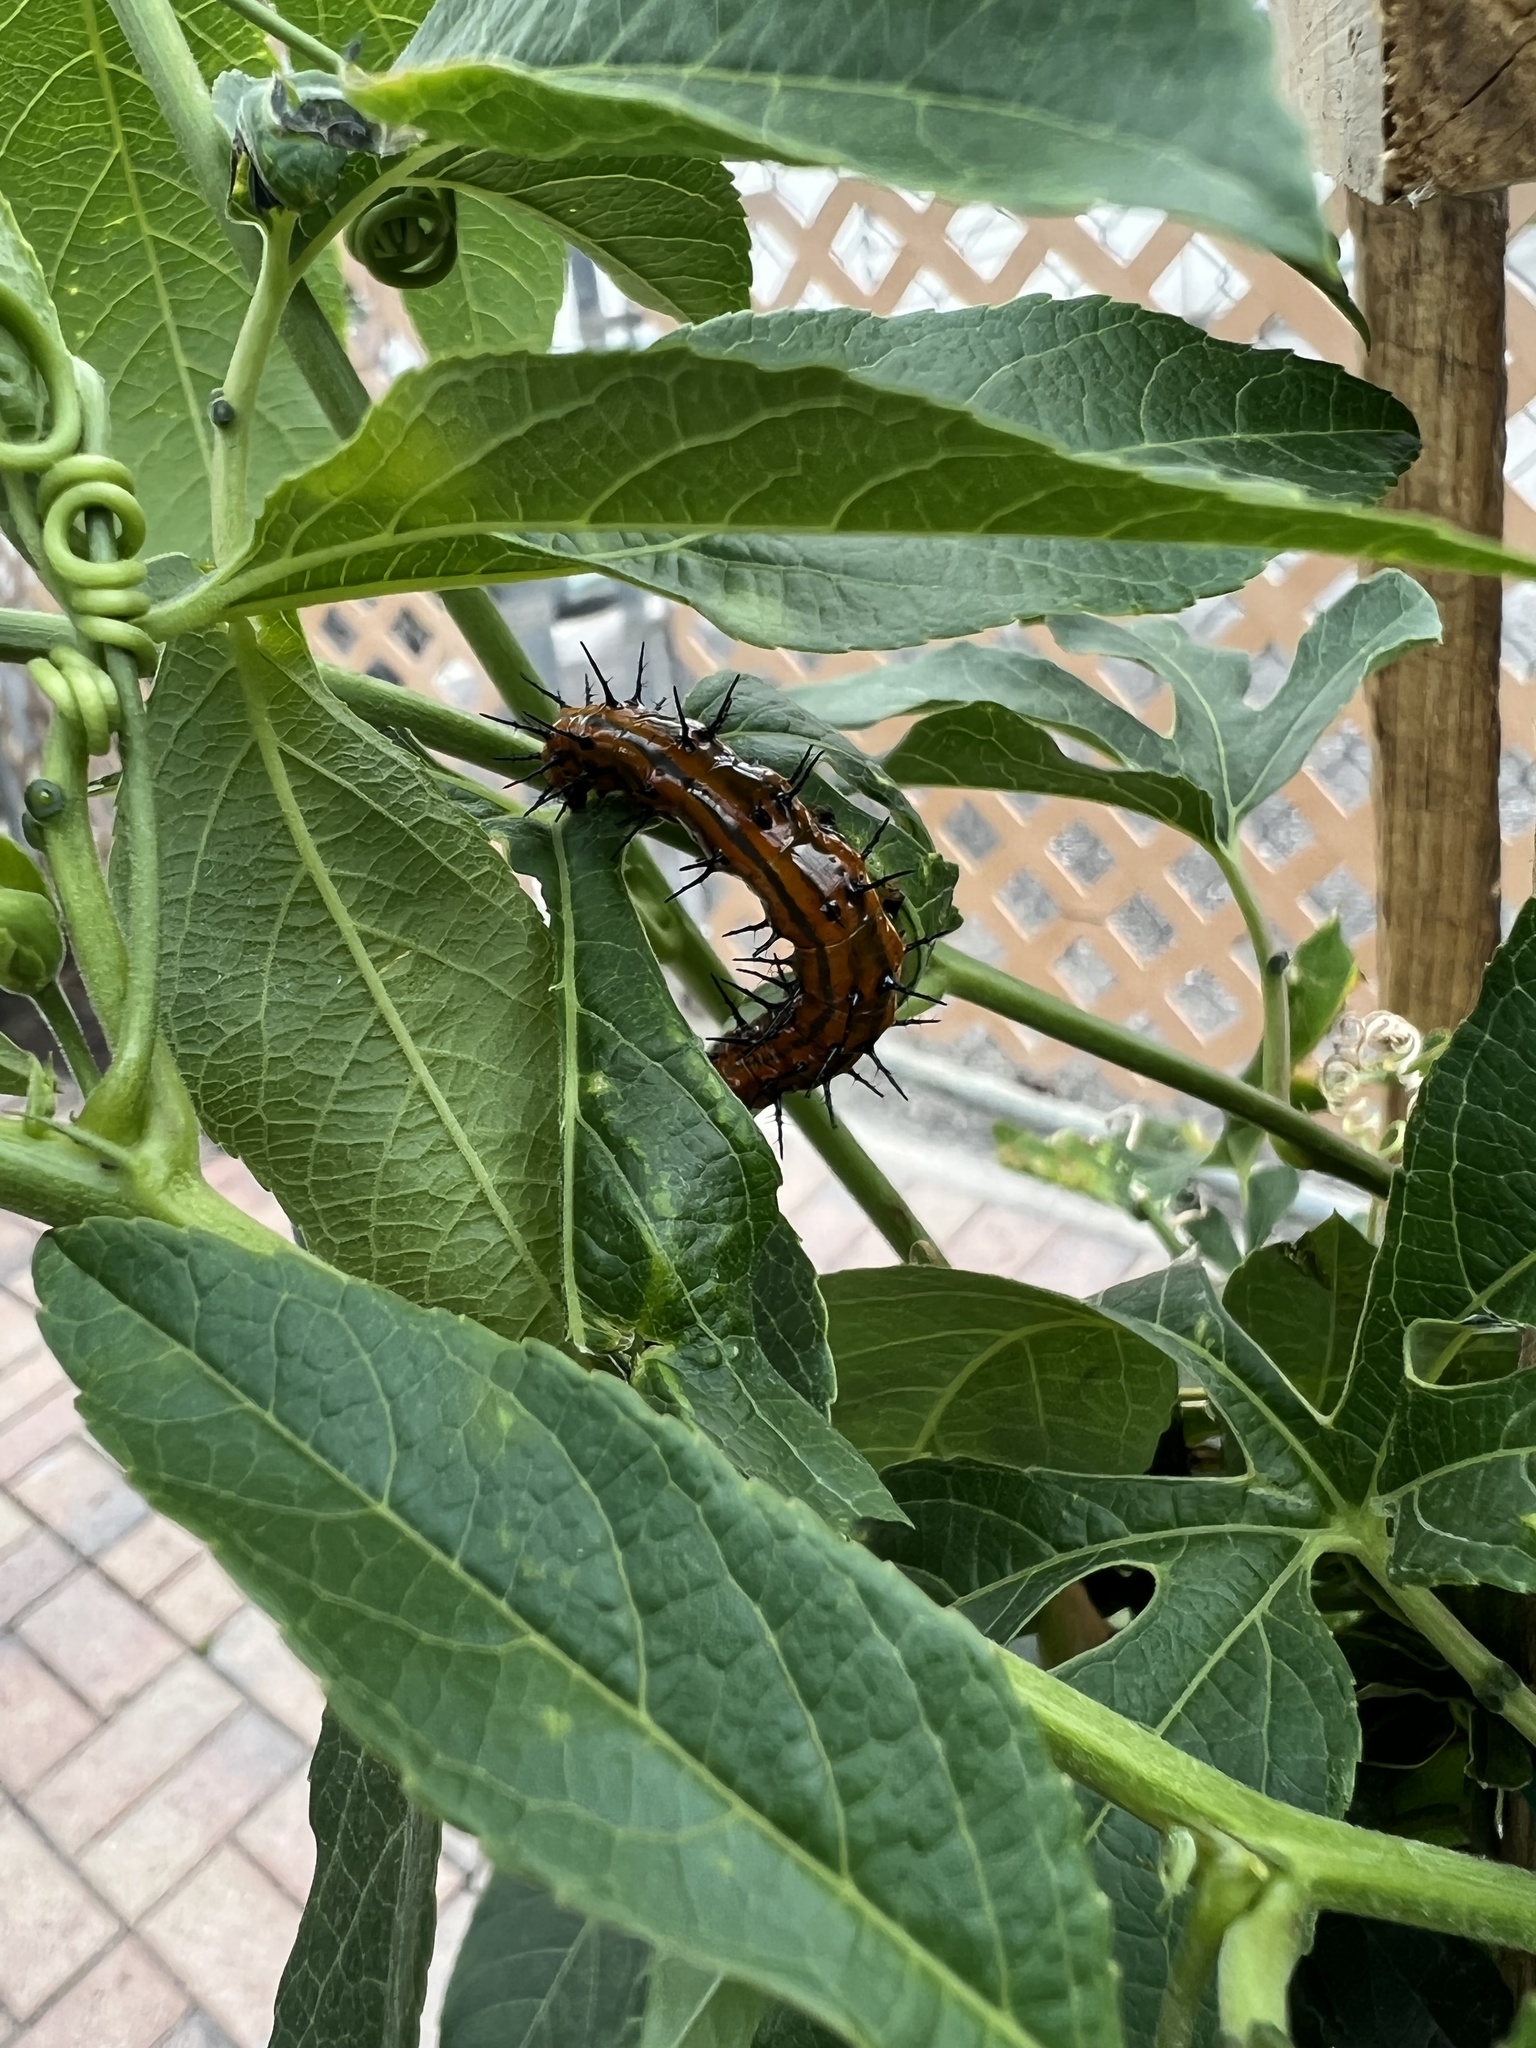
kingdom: Animalia
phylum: Arthropoda
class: Insecta
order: Lepidoptera
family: Nymphalidae
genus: Dione
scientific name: Dione vanillae
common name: Gulf fritillary
